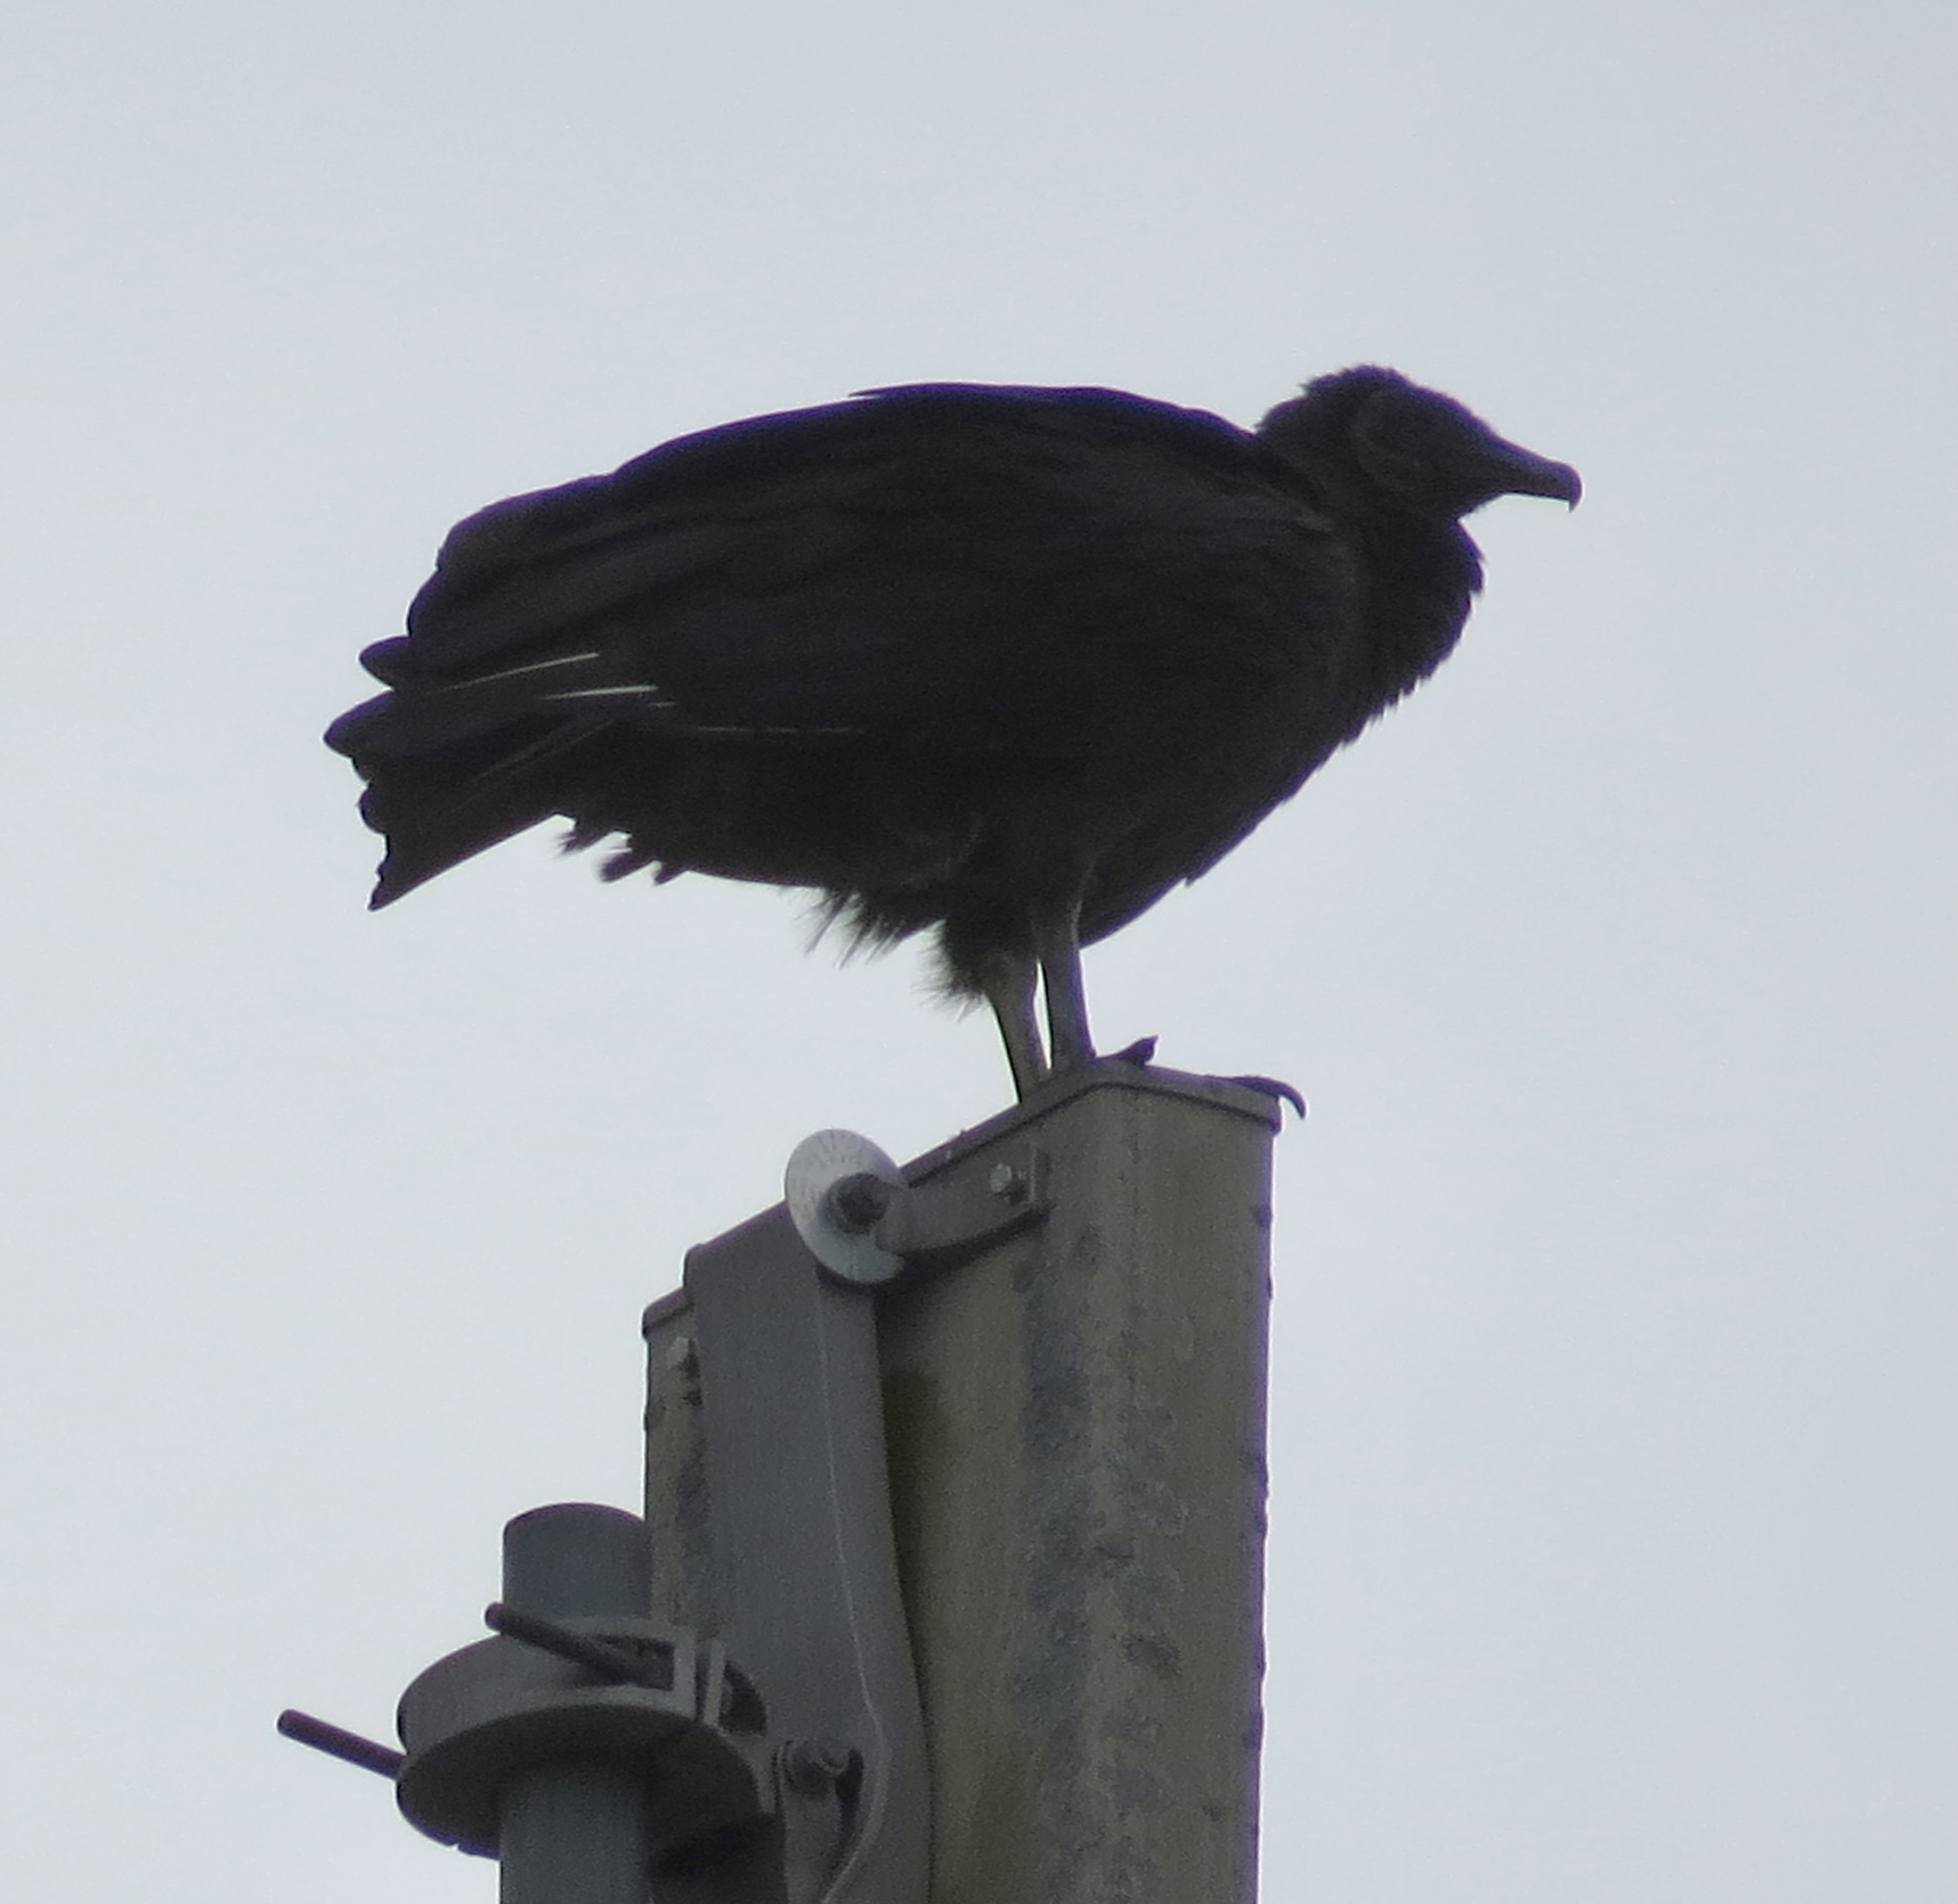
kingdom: Animalia
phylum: Chordata
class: Aves
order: Accipitriformes
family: Cathartidae
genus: Coragyps
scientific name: Coragyps atratus
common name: Black vulture
